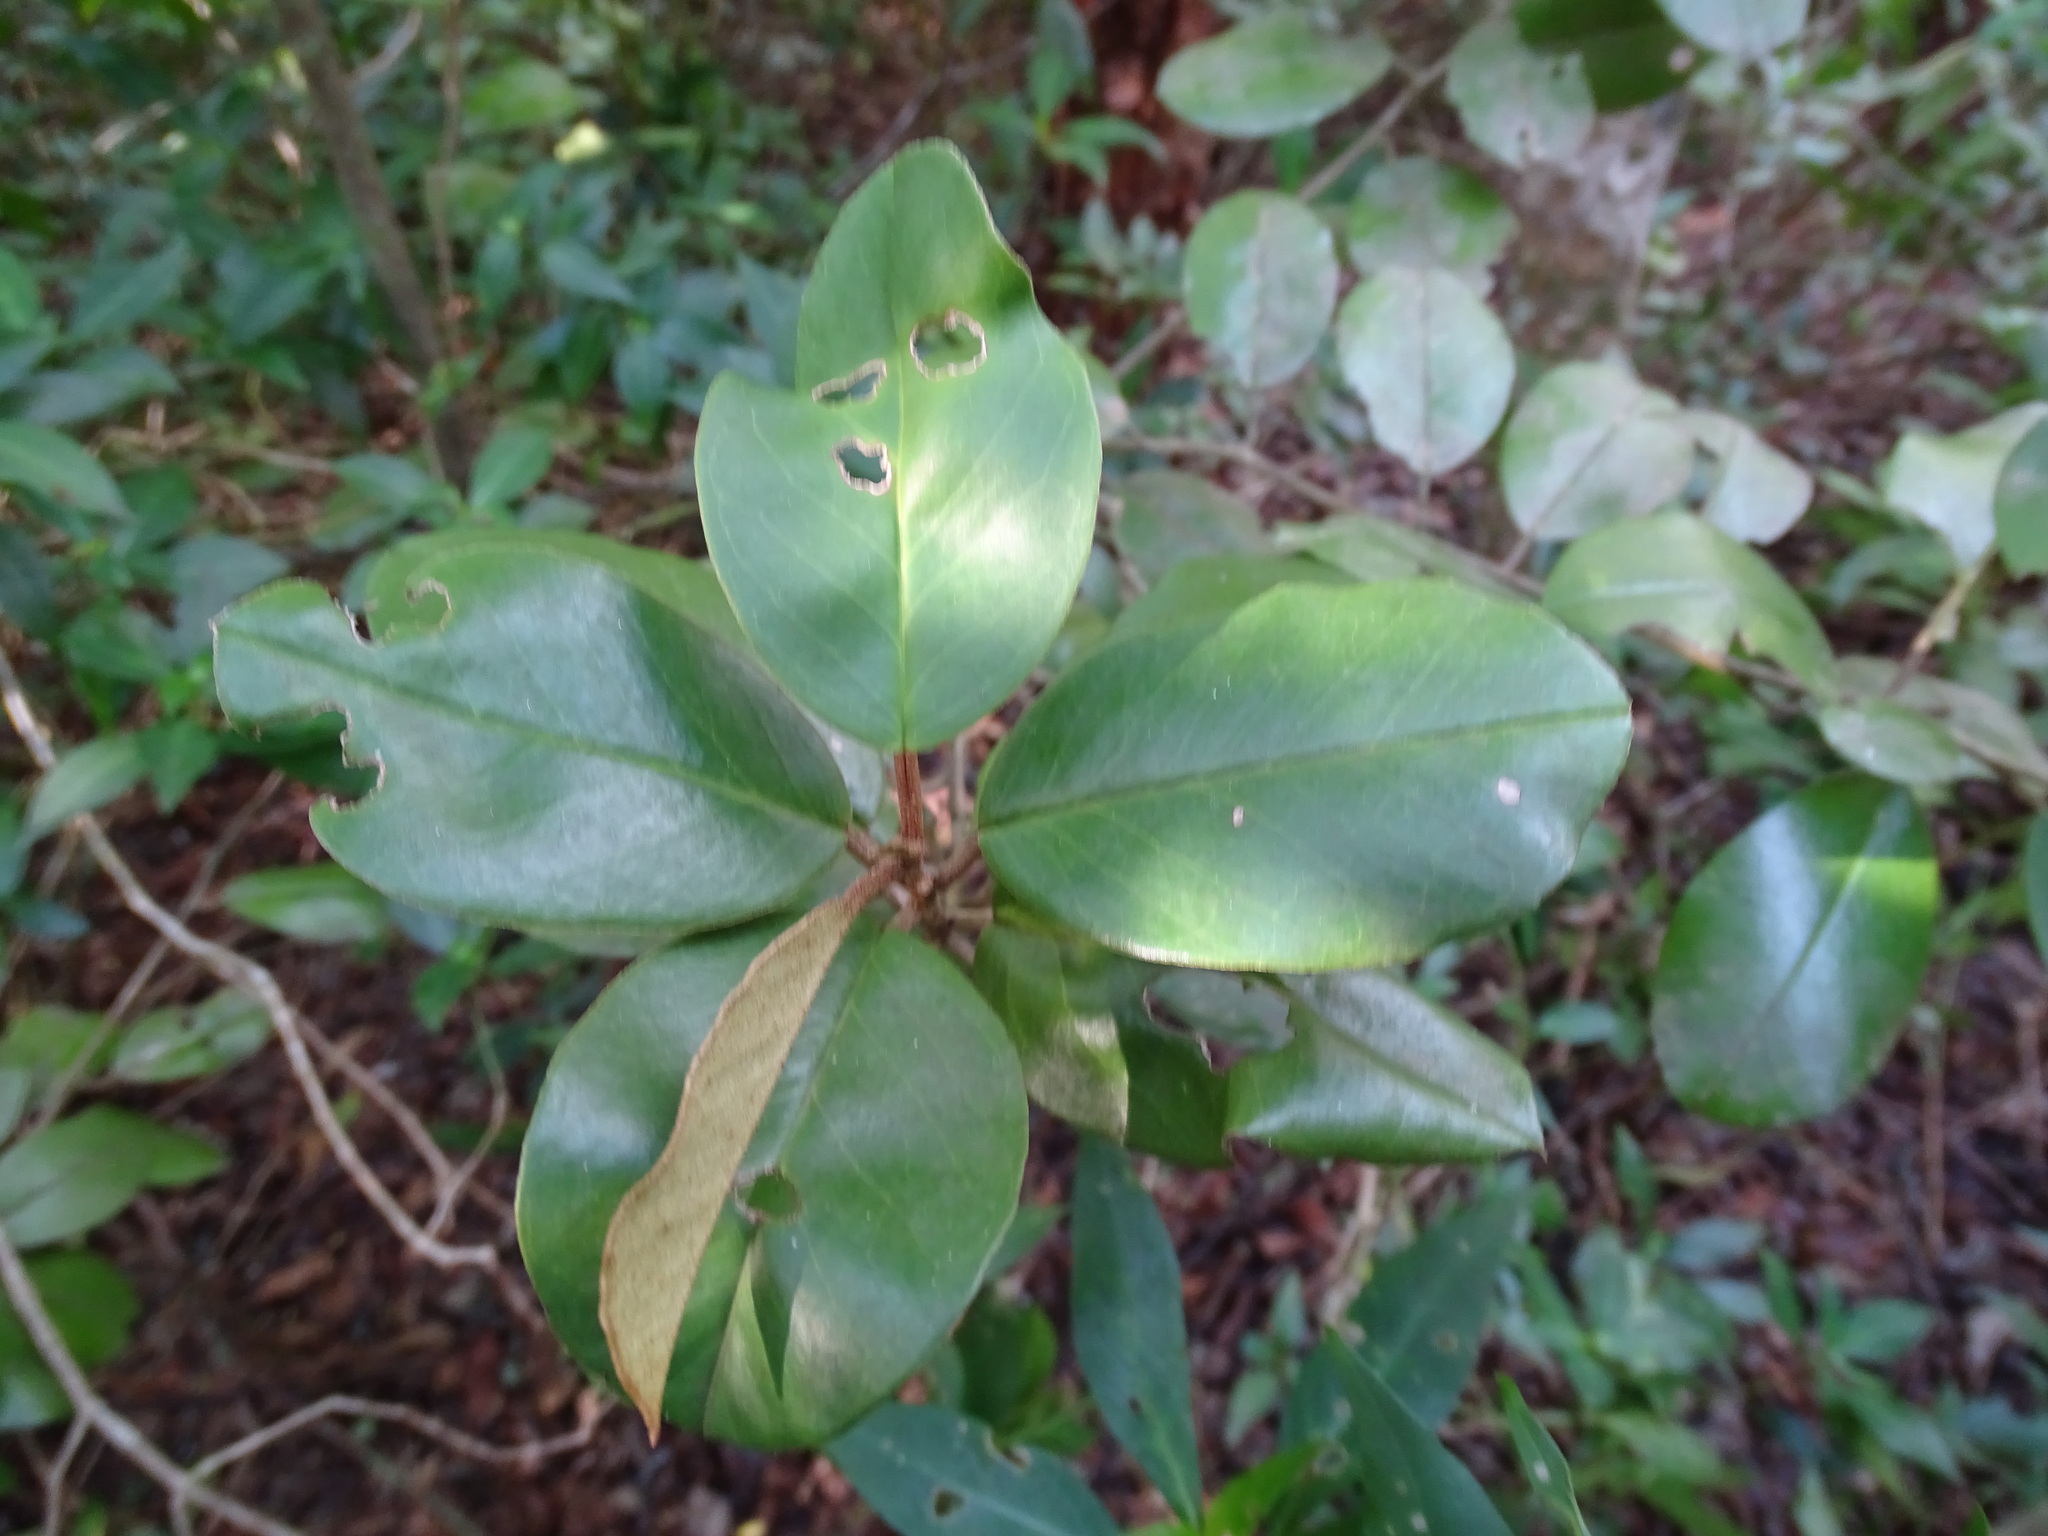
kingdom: Plantae
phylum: Tracheophyta
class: Magnoliopsida
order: Ericales
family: Sapotaceae
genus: Chrysophyllum
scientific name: Chrysophyllum mexicanum
